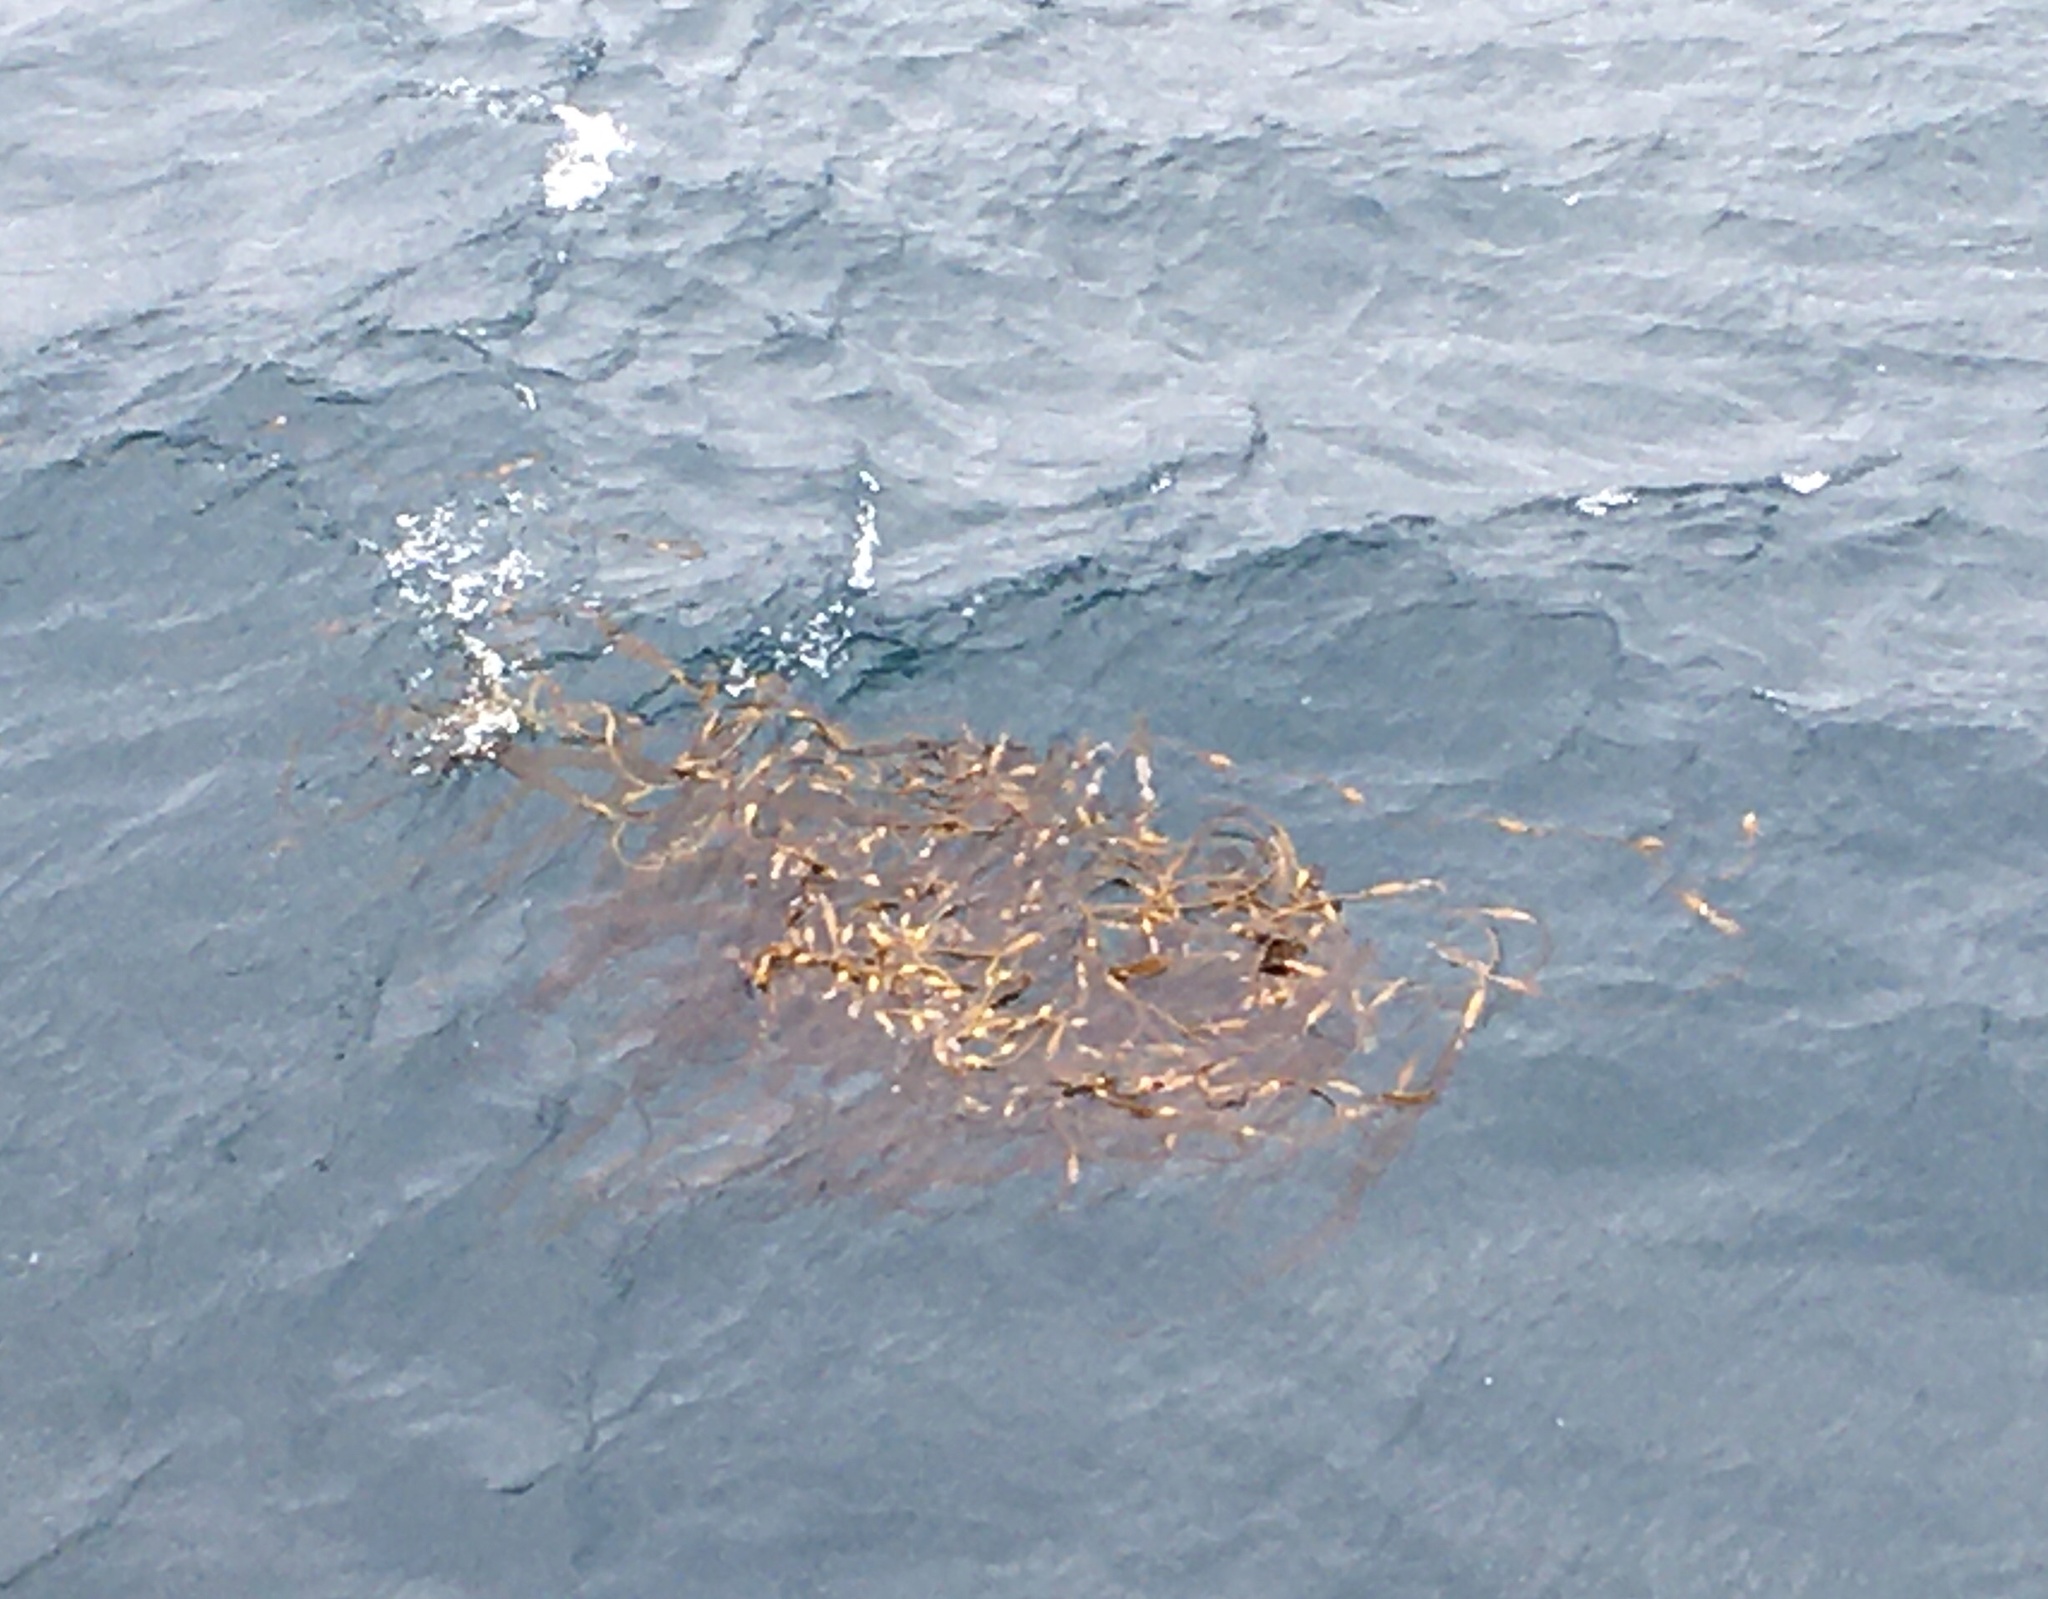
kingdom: Chromista
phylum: Ochrophyta
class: Phaeophyceae
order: Laminariales
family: Laminariaceae
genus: Macrocystis
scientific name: Macrocystis pyrifera
